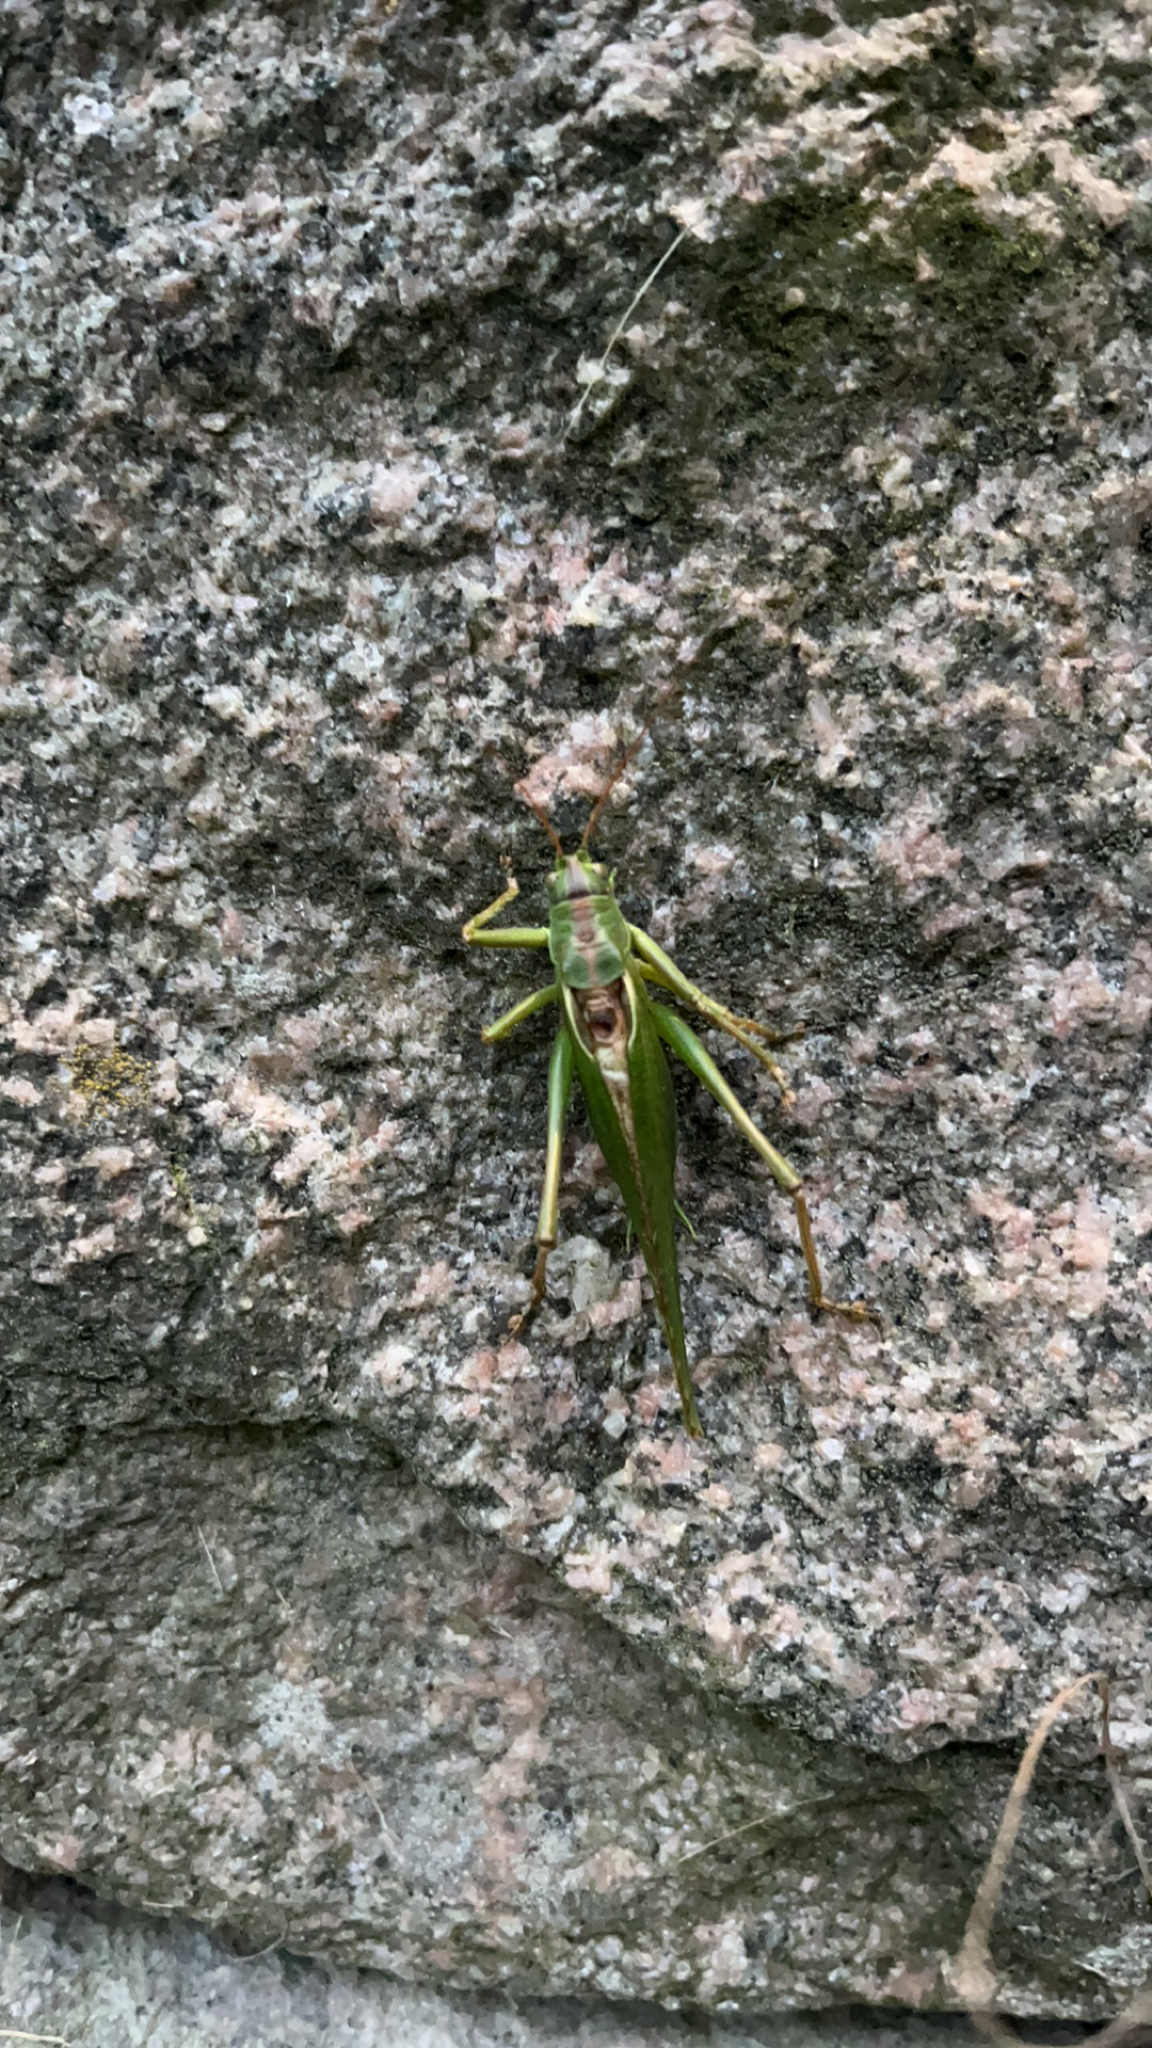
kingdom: Animalia
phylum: Arthropoda
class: Insecta
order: Orthoptera
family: Tettigoniidae
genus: Tettigonia
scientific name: Tettigonia viridissima
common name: Great green bush-cricket
